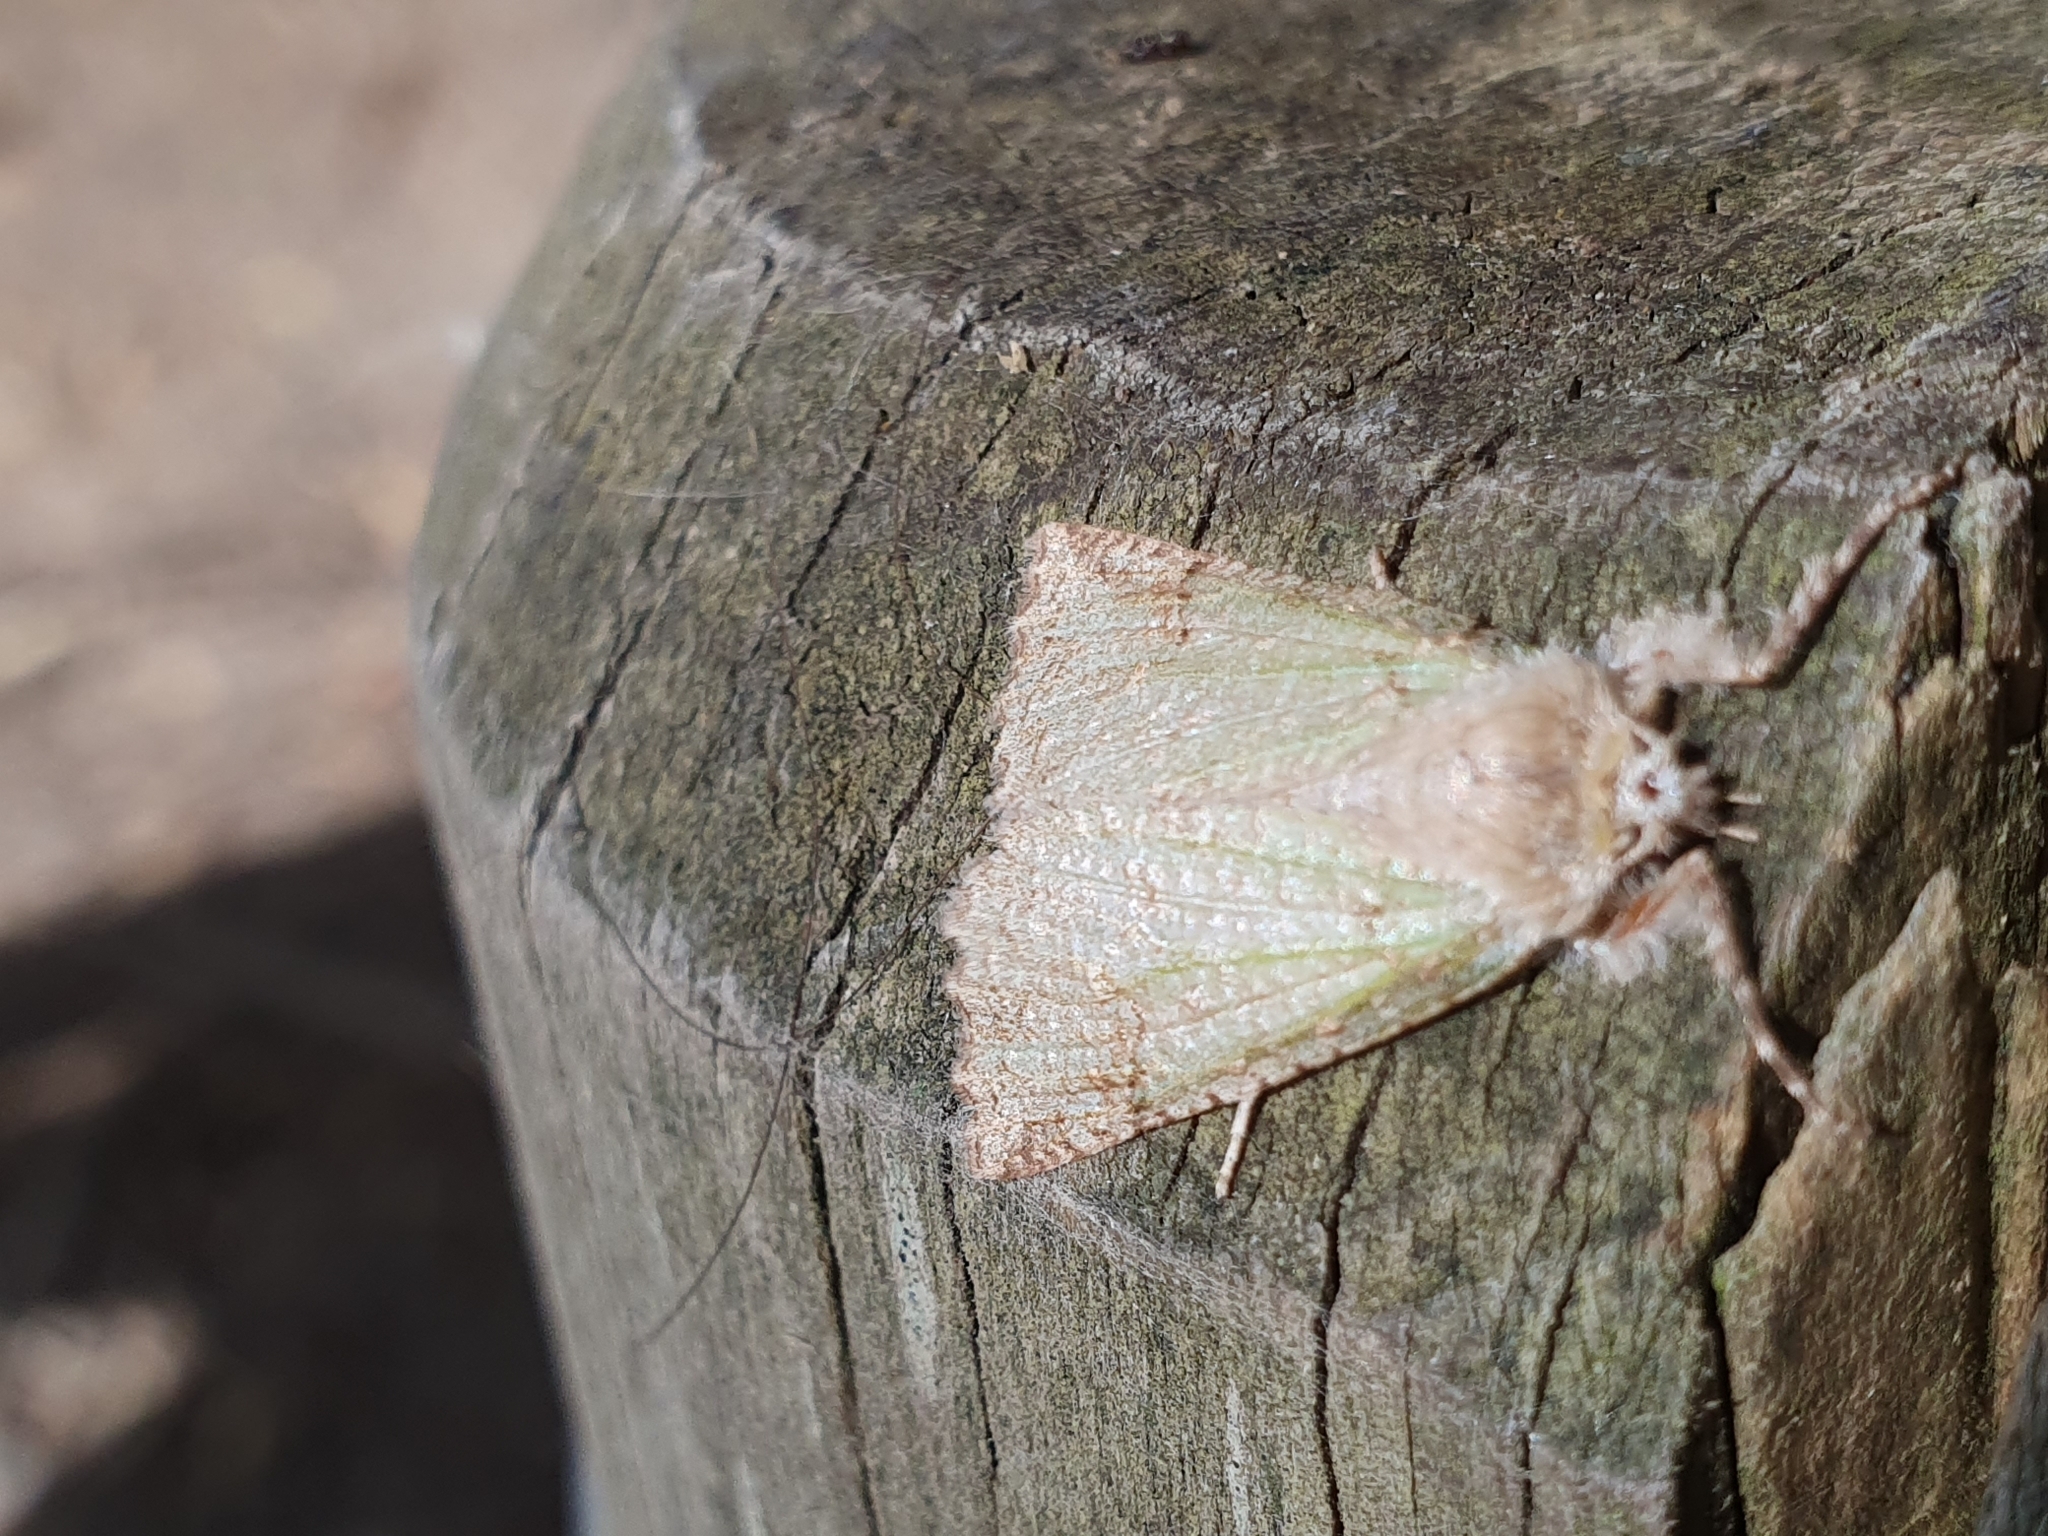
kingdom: Animalia
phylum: Arthropoda
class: Insecta
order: Lepidoptera
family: Geometridae
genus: Declana
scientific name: Declana floccosa
